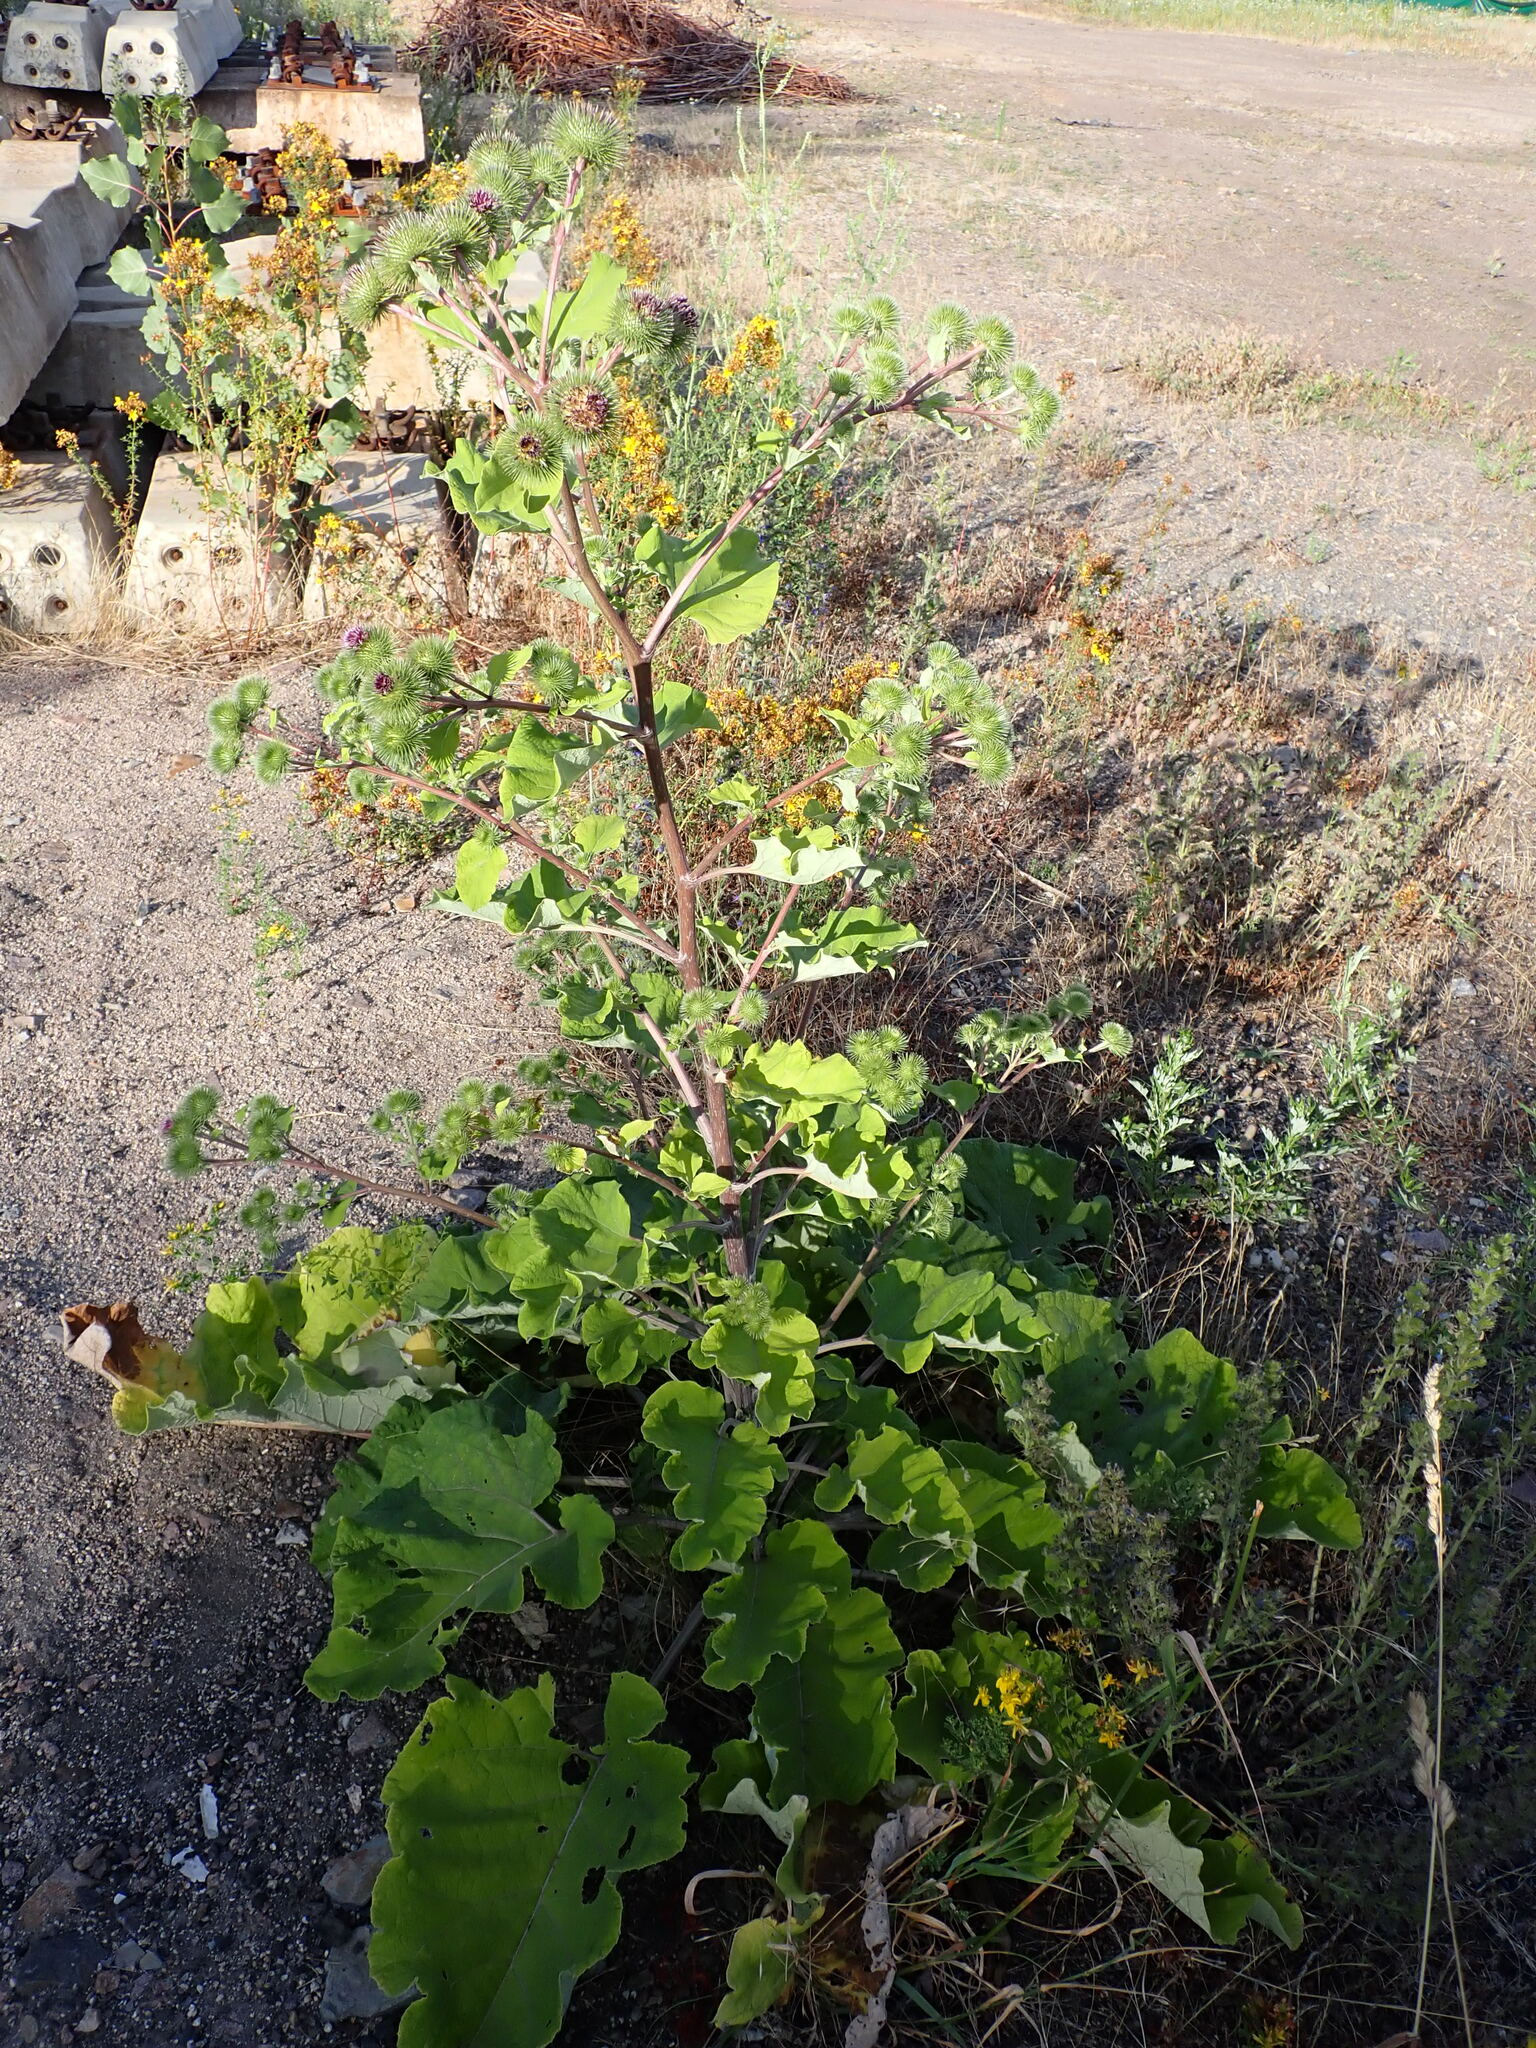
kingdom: Plantae
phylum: Tracheophyta
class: Magnoliopsida
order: Asterales
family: Asteraceae
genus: Arctium
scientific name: Arctium lappa
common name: Greater burdock
